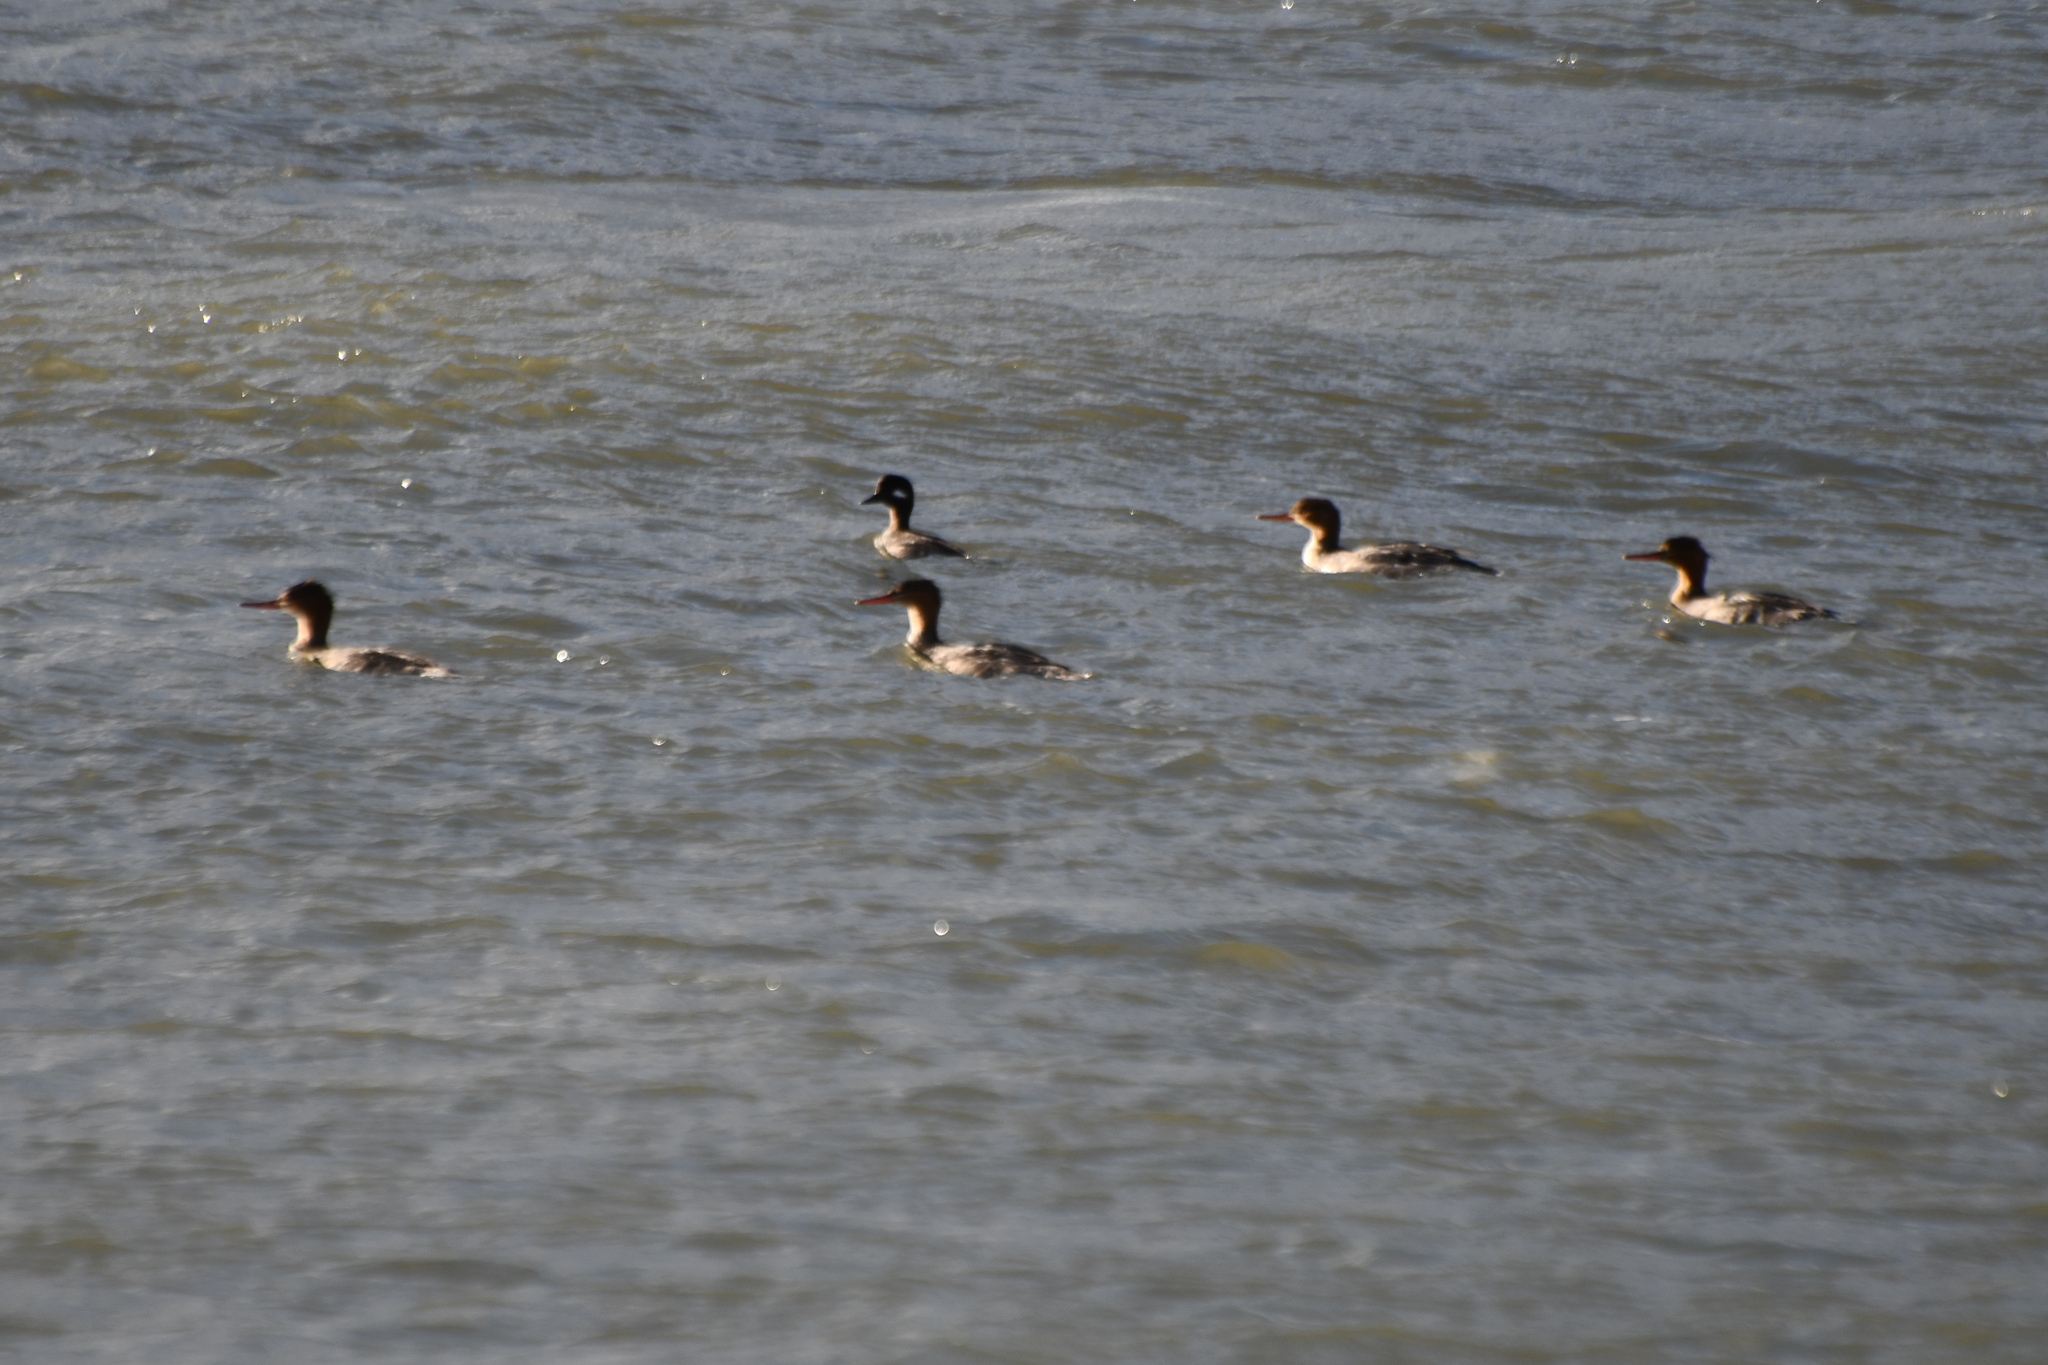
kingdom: Animalia
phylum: Chordata
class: Aves
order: Anseriformes
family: Anatidae
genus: Mergus
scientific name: Mergus serrator
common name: Red-breasted merganser
